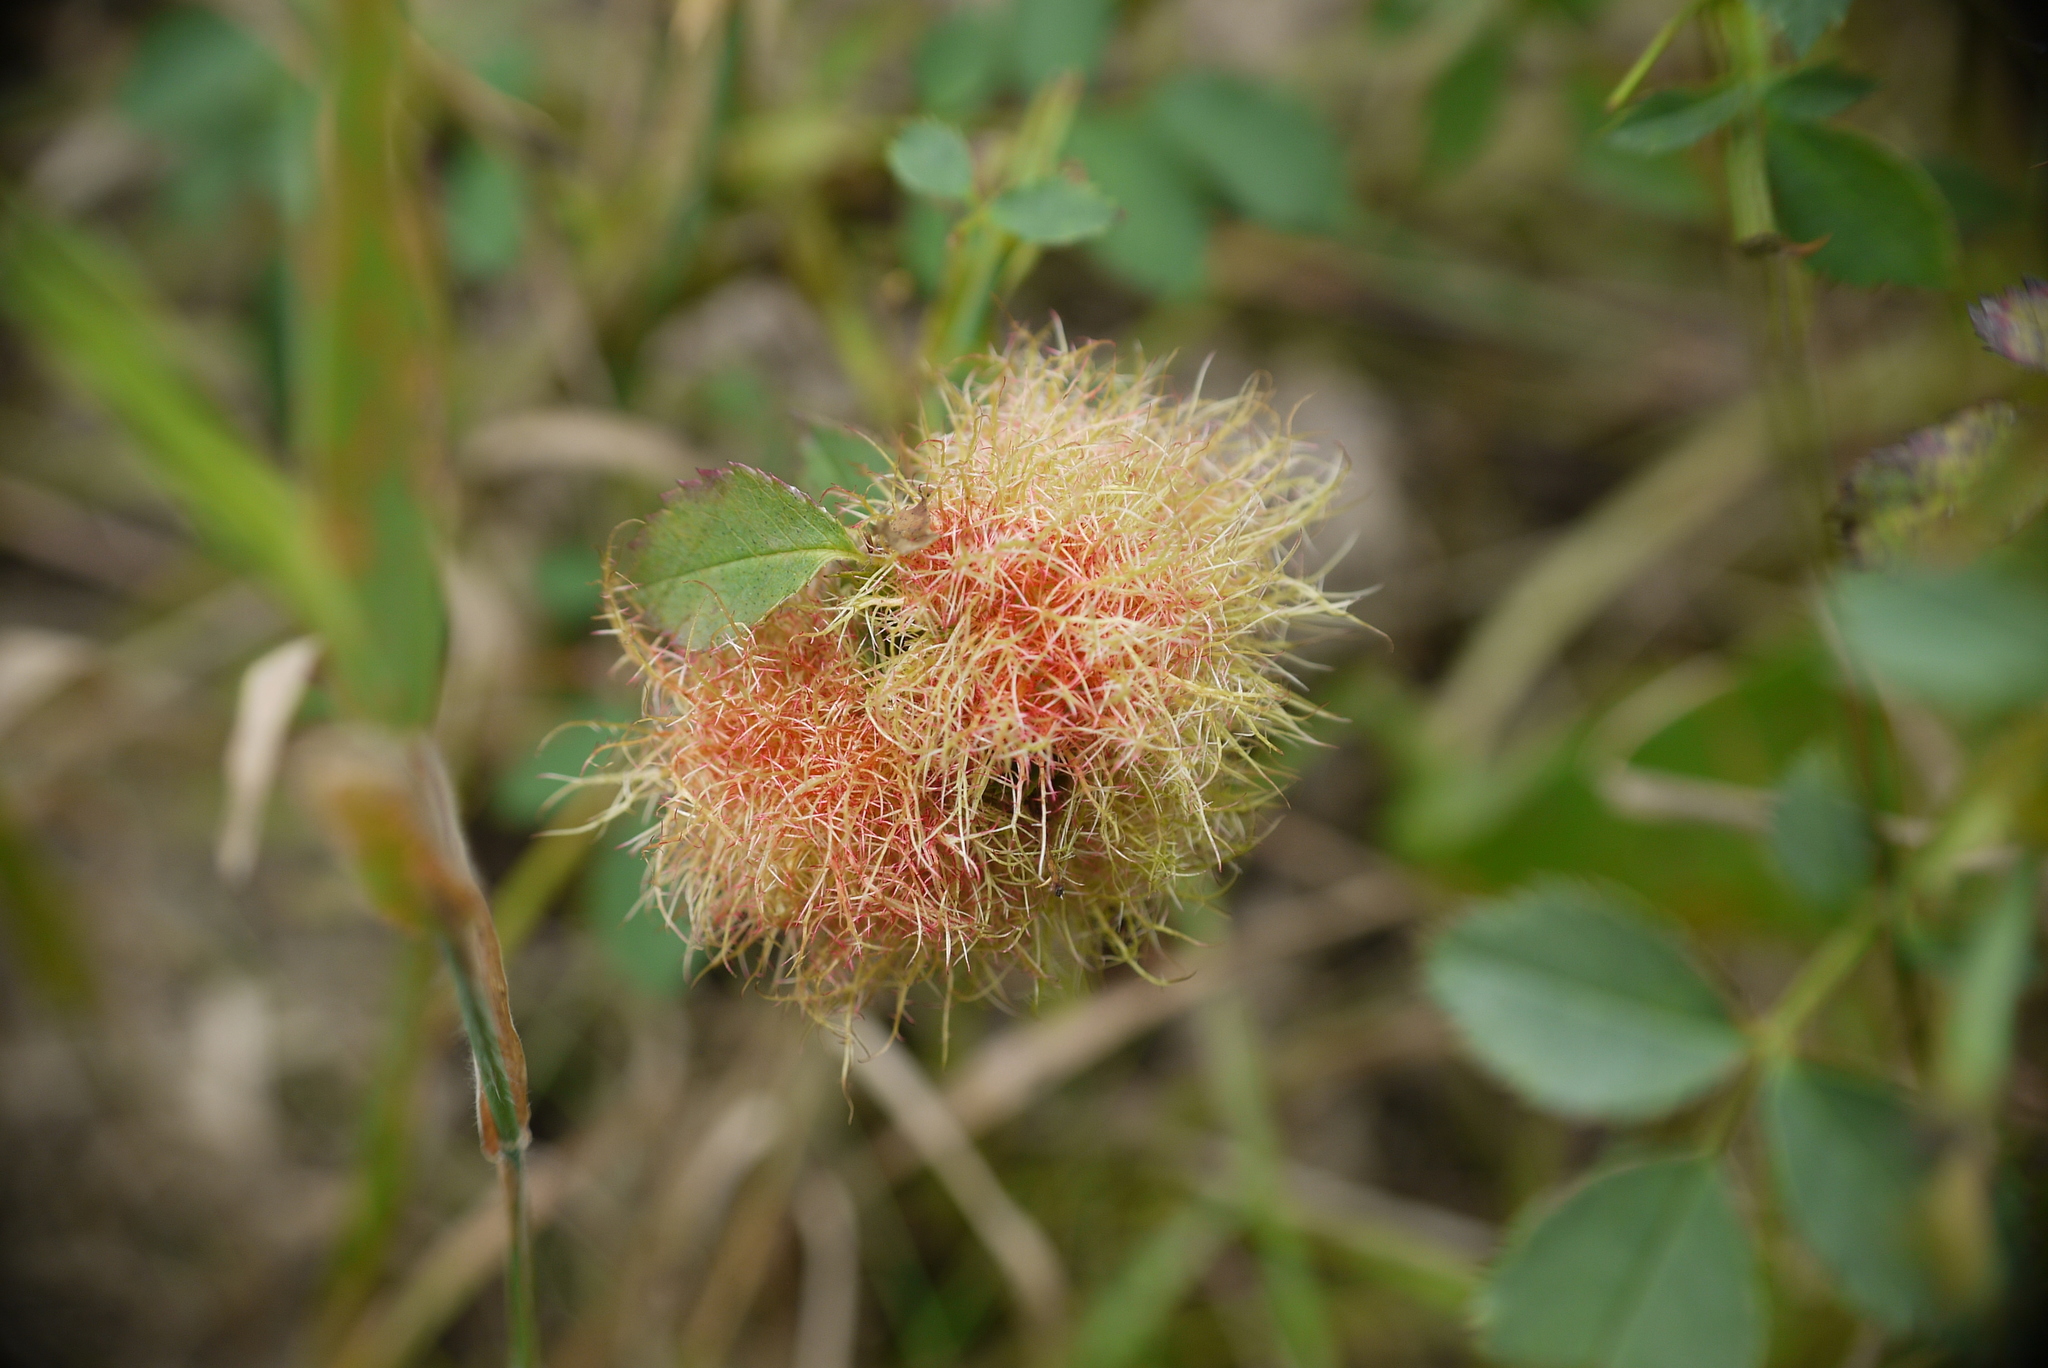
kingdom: Animalia
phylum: Arthropoda
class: Insecta
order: Hymenoptera
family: Cynipidae
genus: Diplolepis
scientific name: Diplolepis rosae
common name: Bedeguar gall
